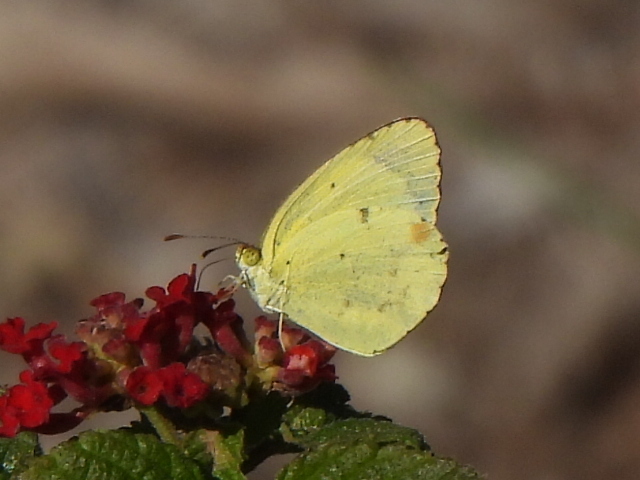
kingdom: Animalia
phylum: Arthropoda
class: Insecta
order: Lepidoptera
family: Pieridae
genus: Pyrisitia
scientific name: Pyrisitia lisa
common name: Little yellow
